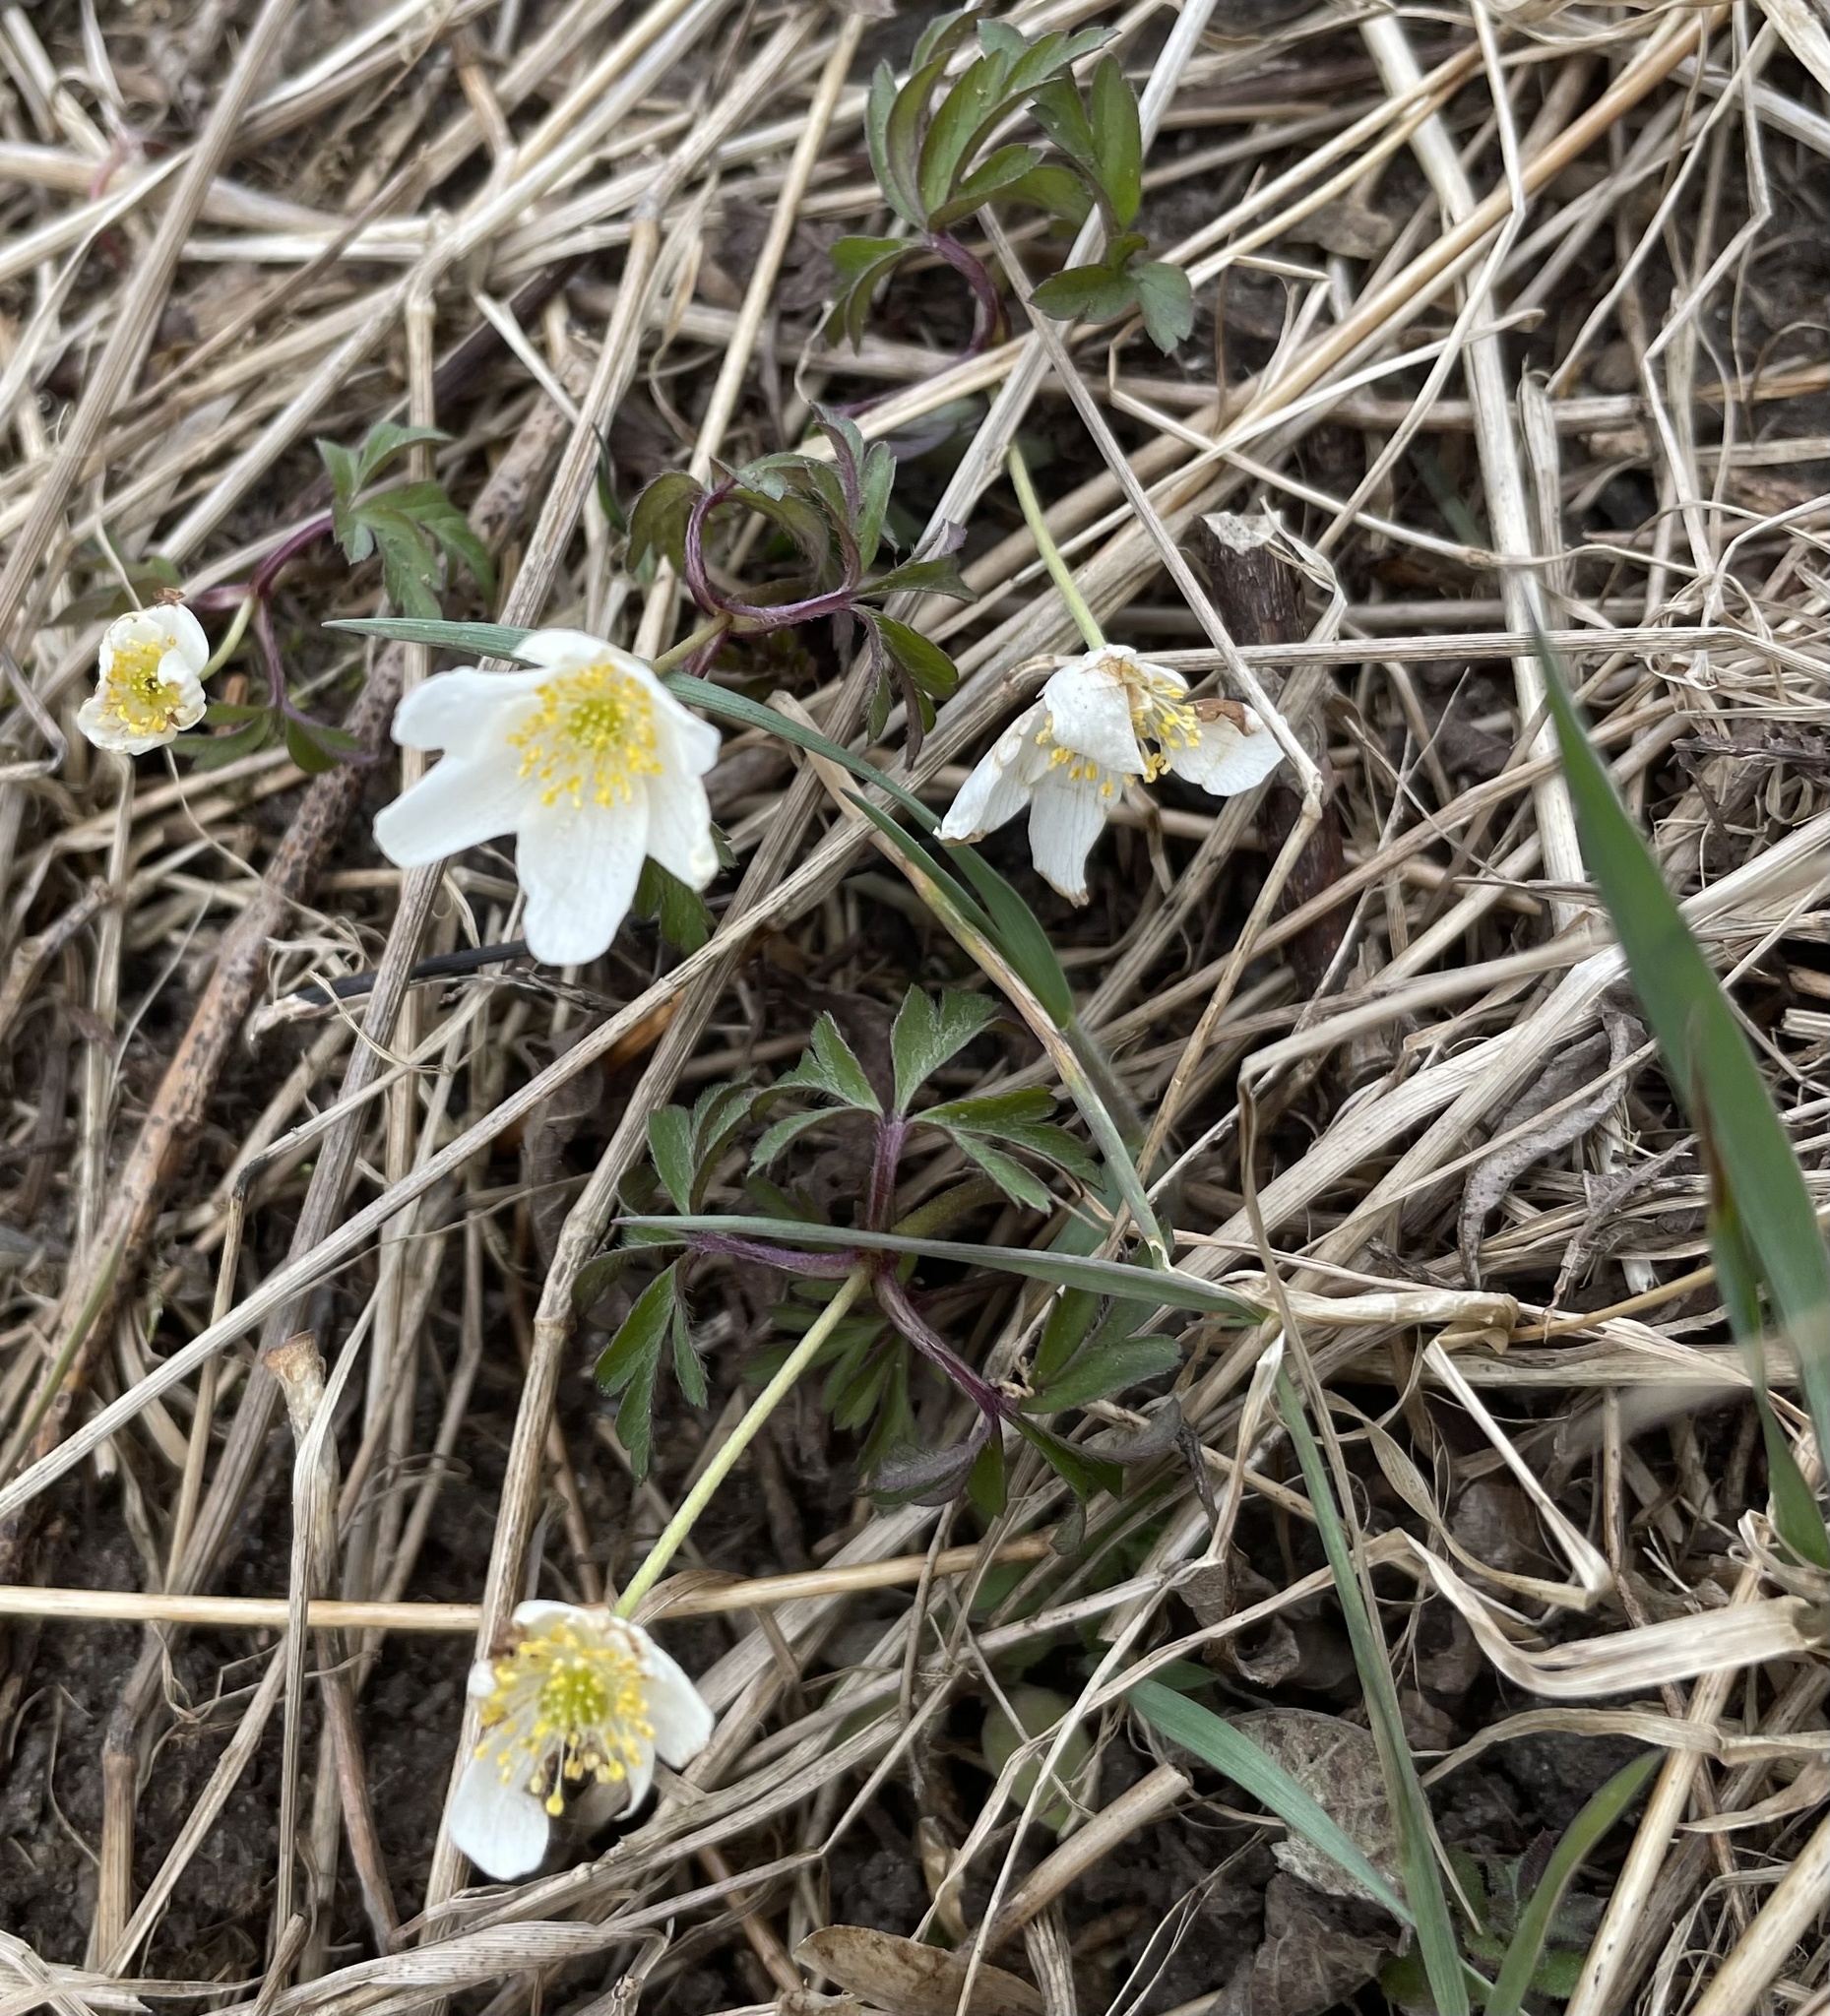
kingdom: Plantae
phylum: Tracheophyta
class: Magnoliopsida
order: Ranunculales
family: Ranunculaceae
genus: Anemone
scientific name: Anemone nemorosa
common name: Wood anemone
